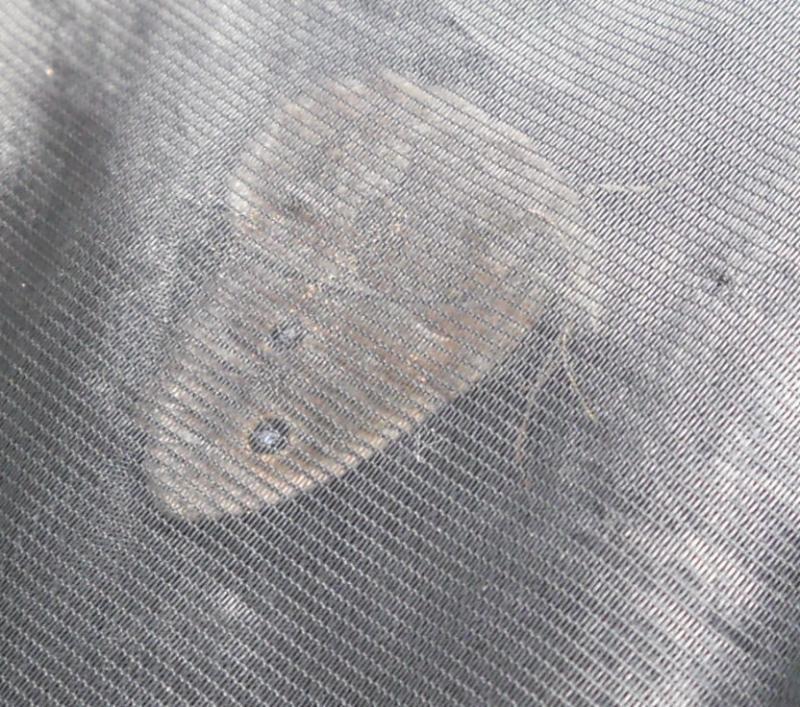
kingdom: Animalia
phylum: Arthropoda
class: Insecta
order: Lepidoptera
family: Nymphalidae
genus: Minois
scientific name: Minois dryas
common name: Dryad
